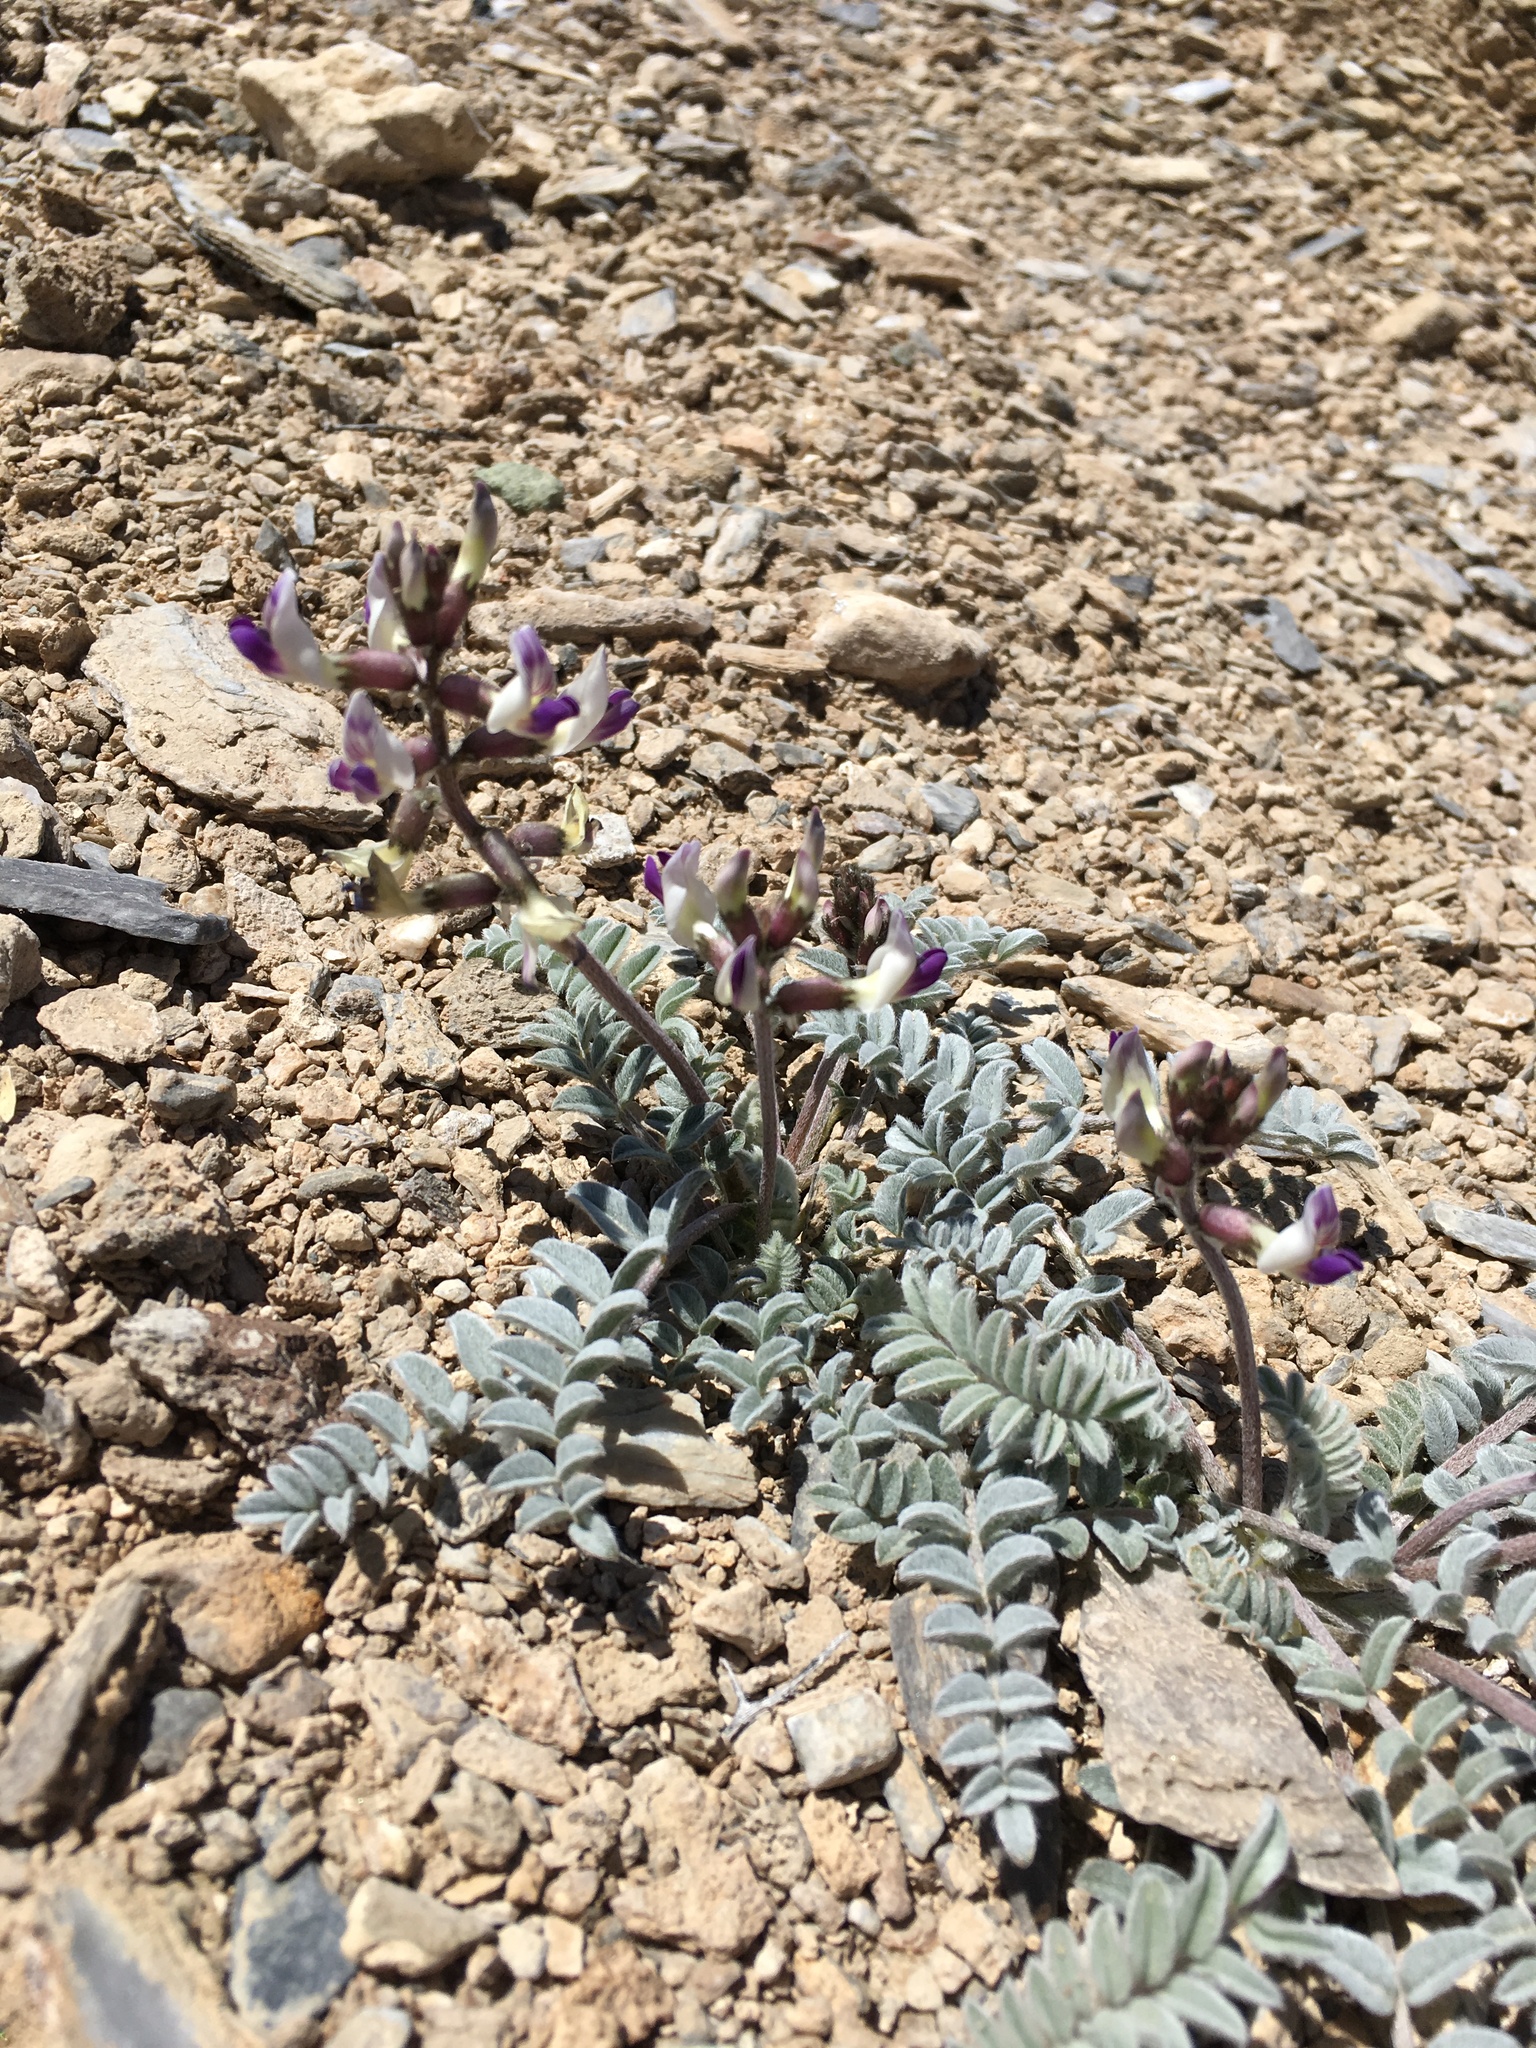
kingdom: Plantae
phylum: Tracheophyta
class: Magnoliopsida
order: Fabales
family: Fabaceae
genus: Astragalus
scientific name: Astragalus layneae
